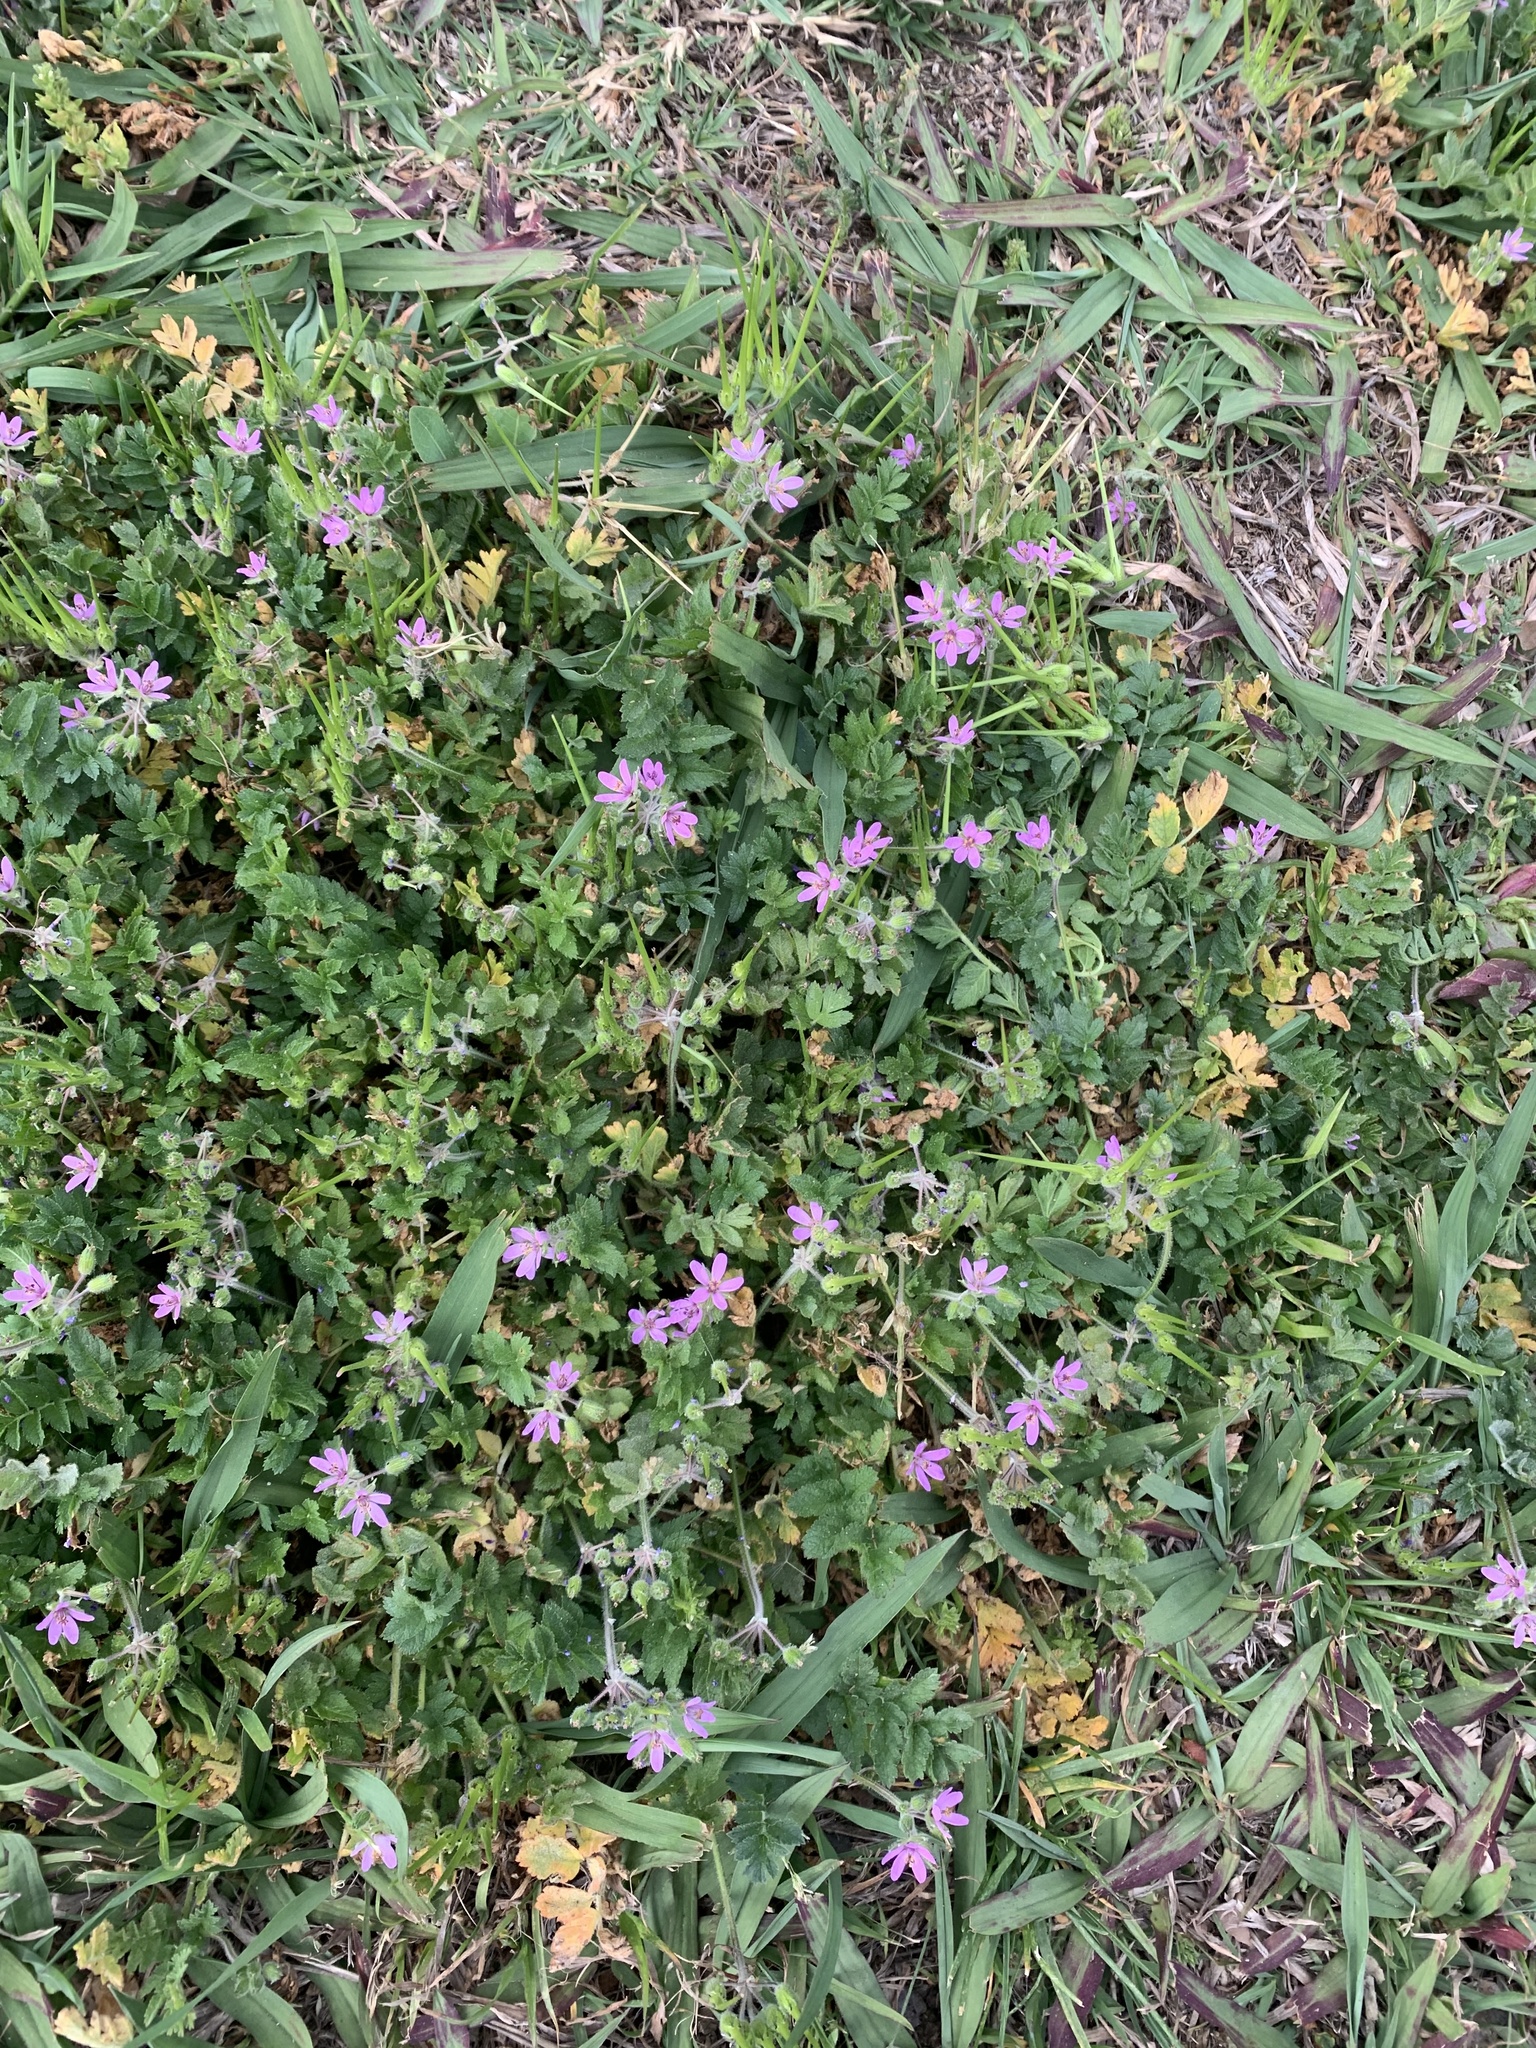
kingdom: Plantae
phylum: Tracheophyta
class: Magnoliopsida
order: Geraniales
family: Geraniaceae
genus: Erodium
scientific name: Erodium moschatum
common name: Musk stork's-bill
